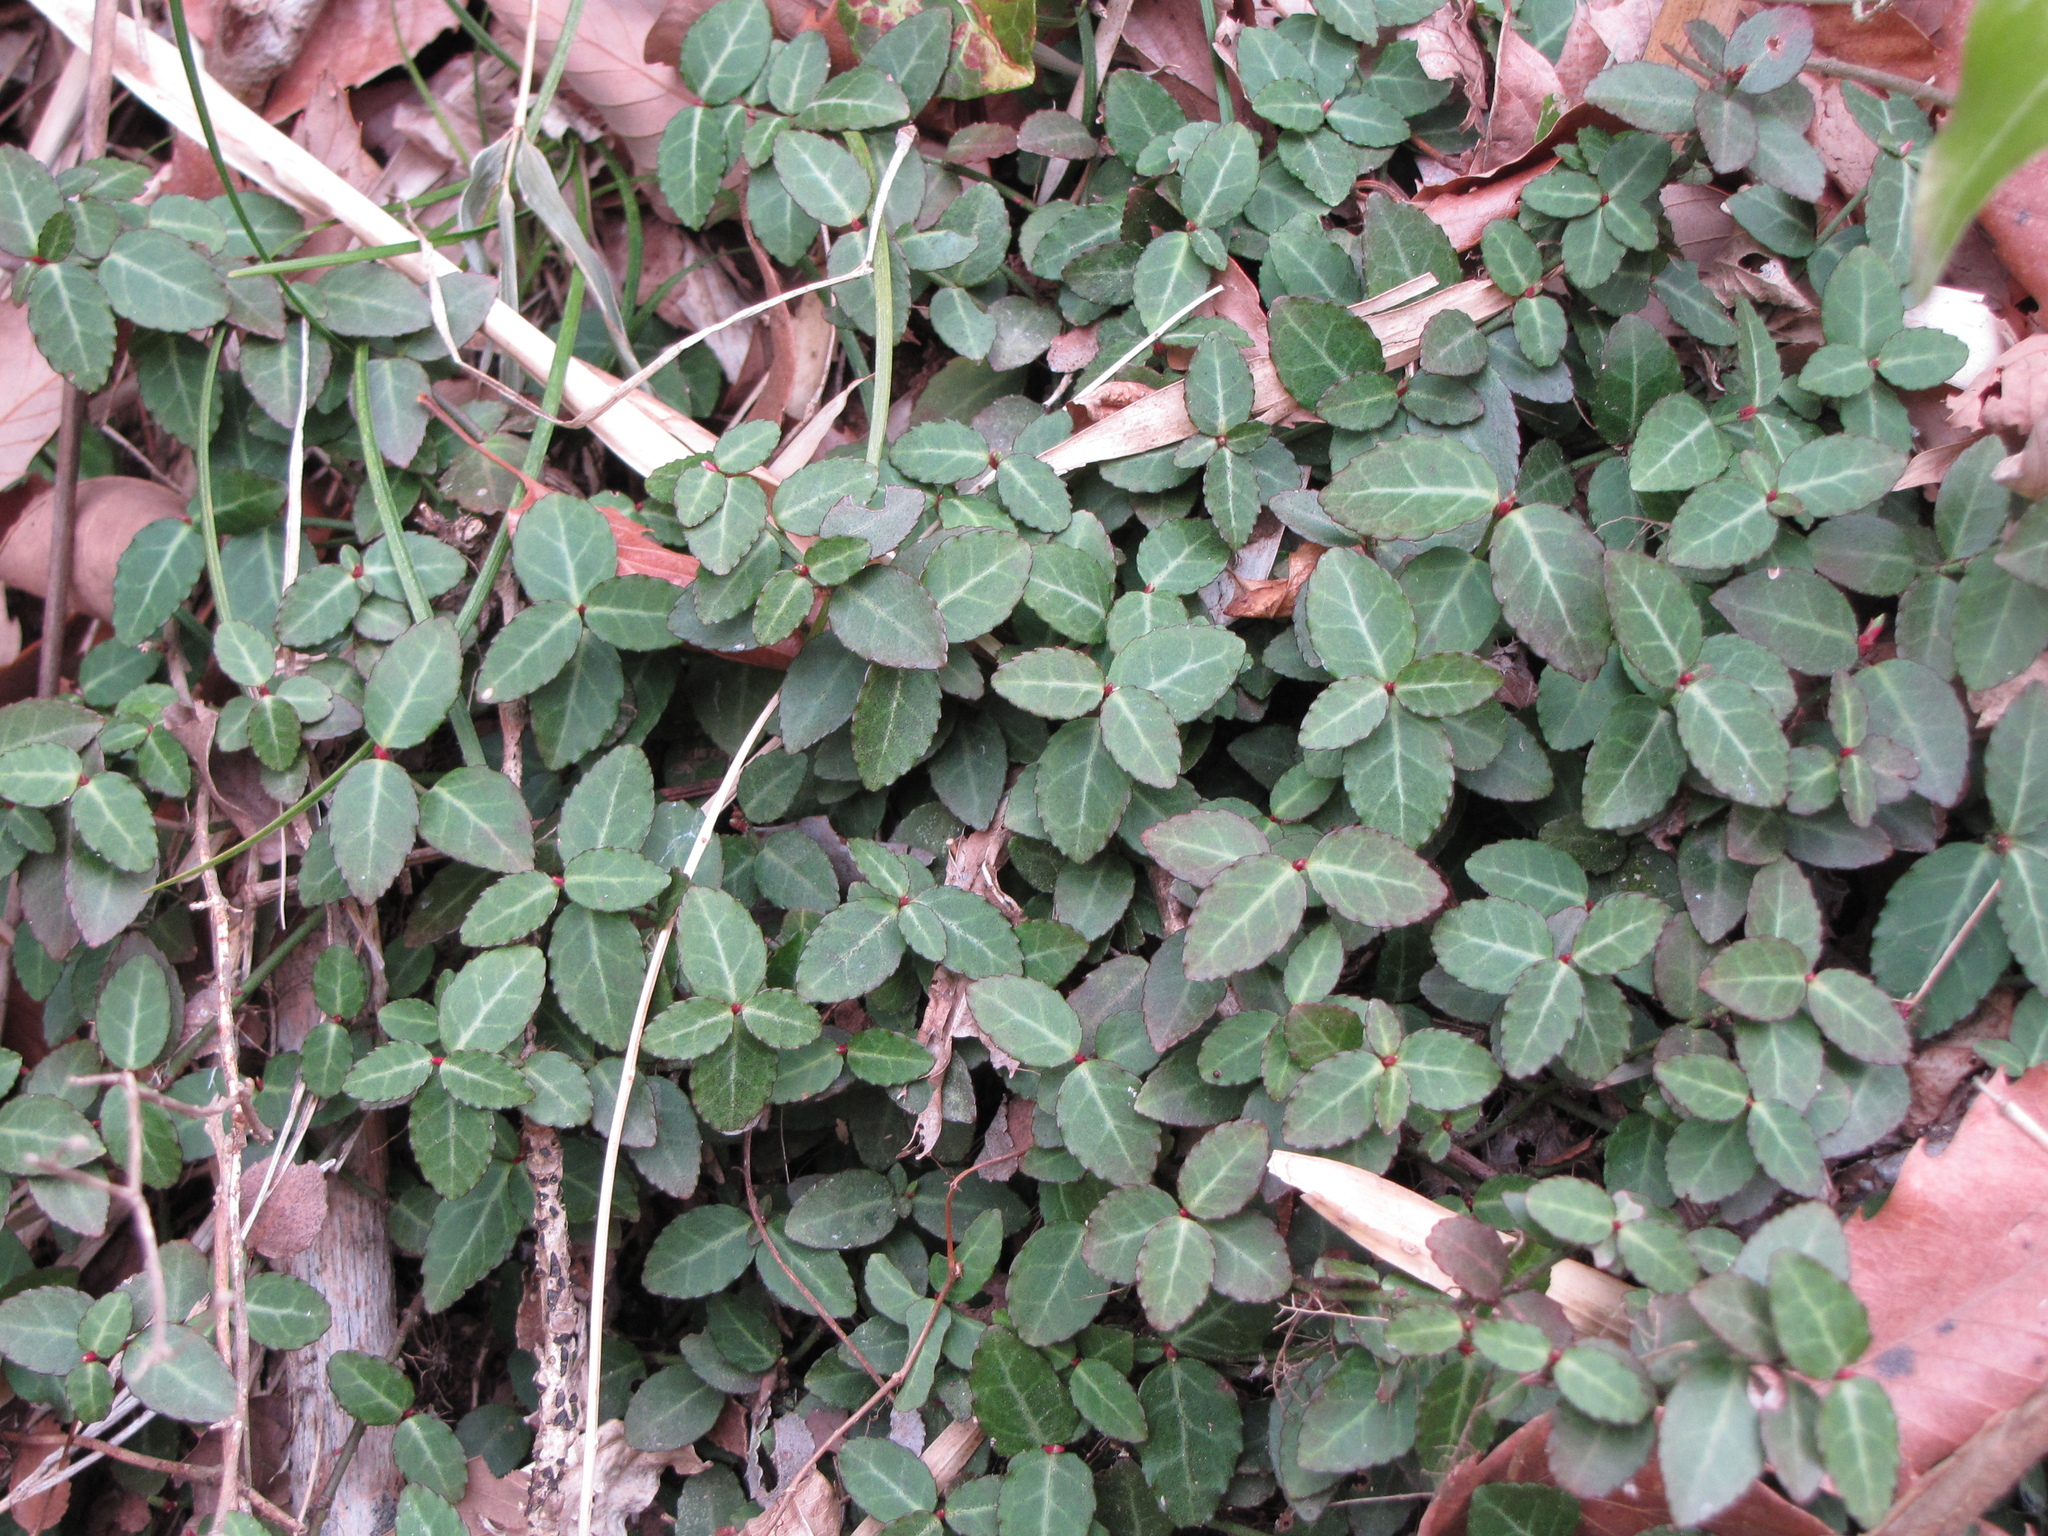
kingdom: Plantae
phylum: Tracheophyta
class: Magnoliopsida
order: Celastrales
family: Celastraceae
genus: Euonymus
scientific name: Euonymus fortunei
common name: Climbing euonymus
